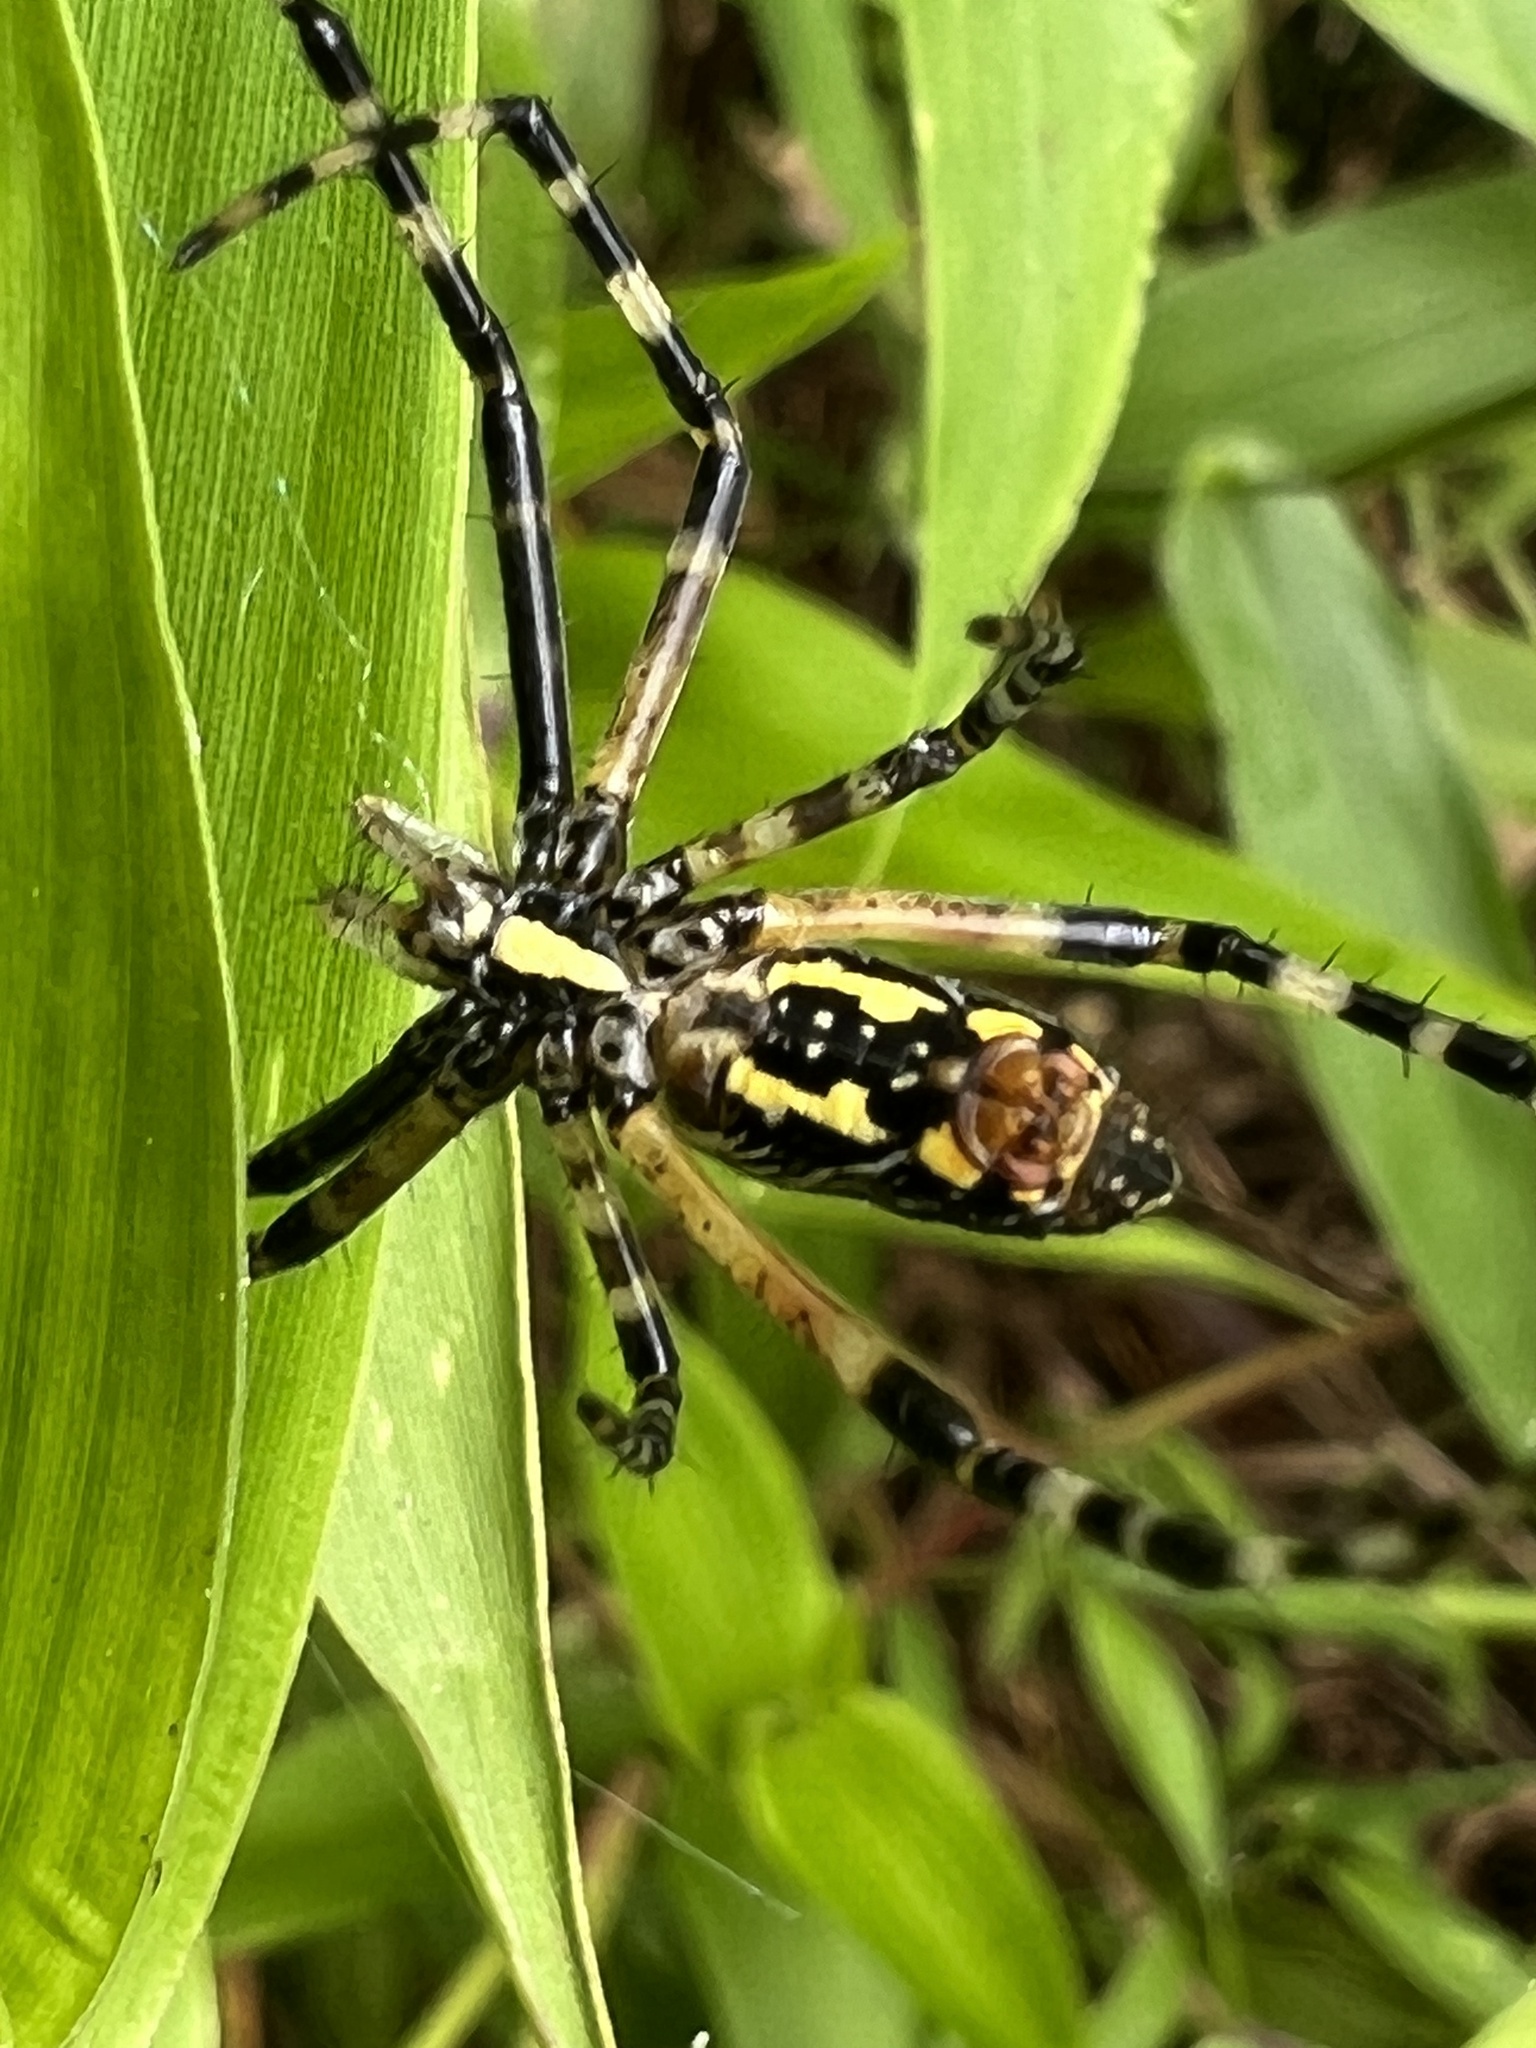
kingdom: Animalia
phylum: Arthropoda
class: Arachnida
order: Araneae
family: Araneidae
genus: Argiope
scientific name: Argiope aurantia
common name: Orb weavers
